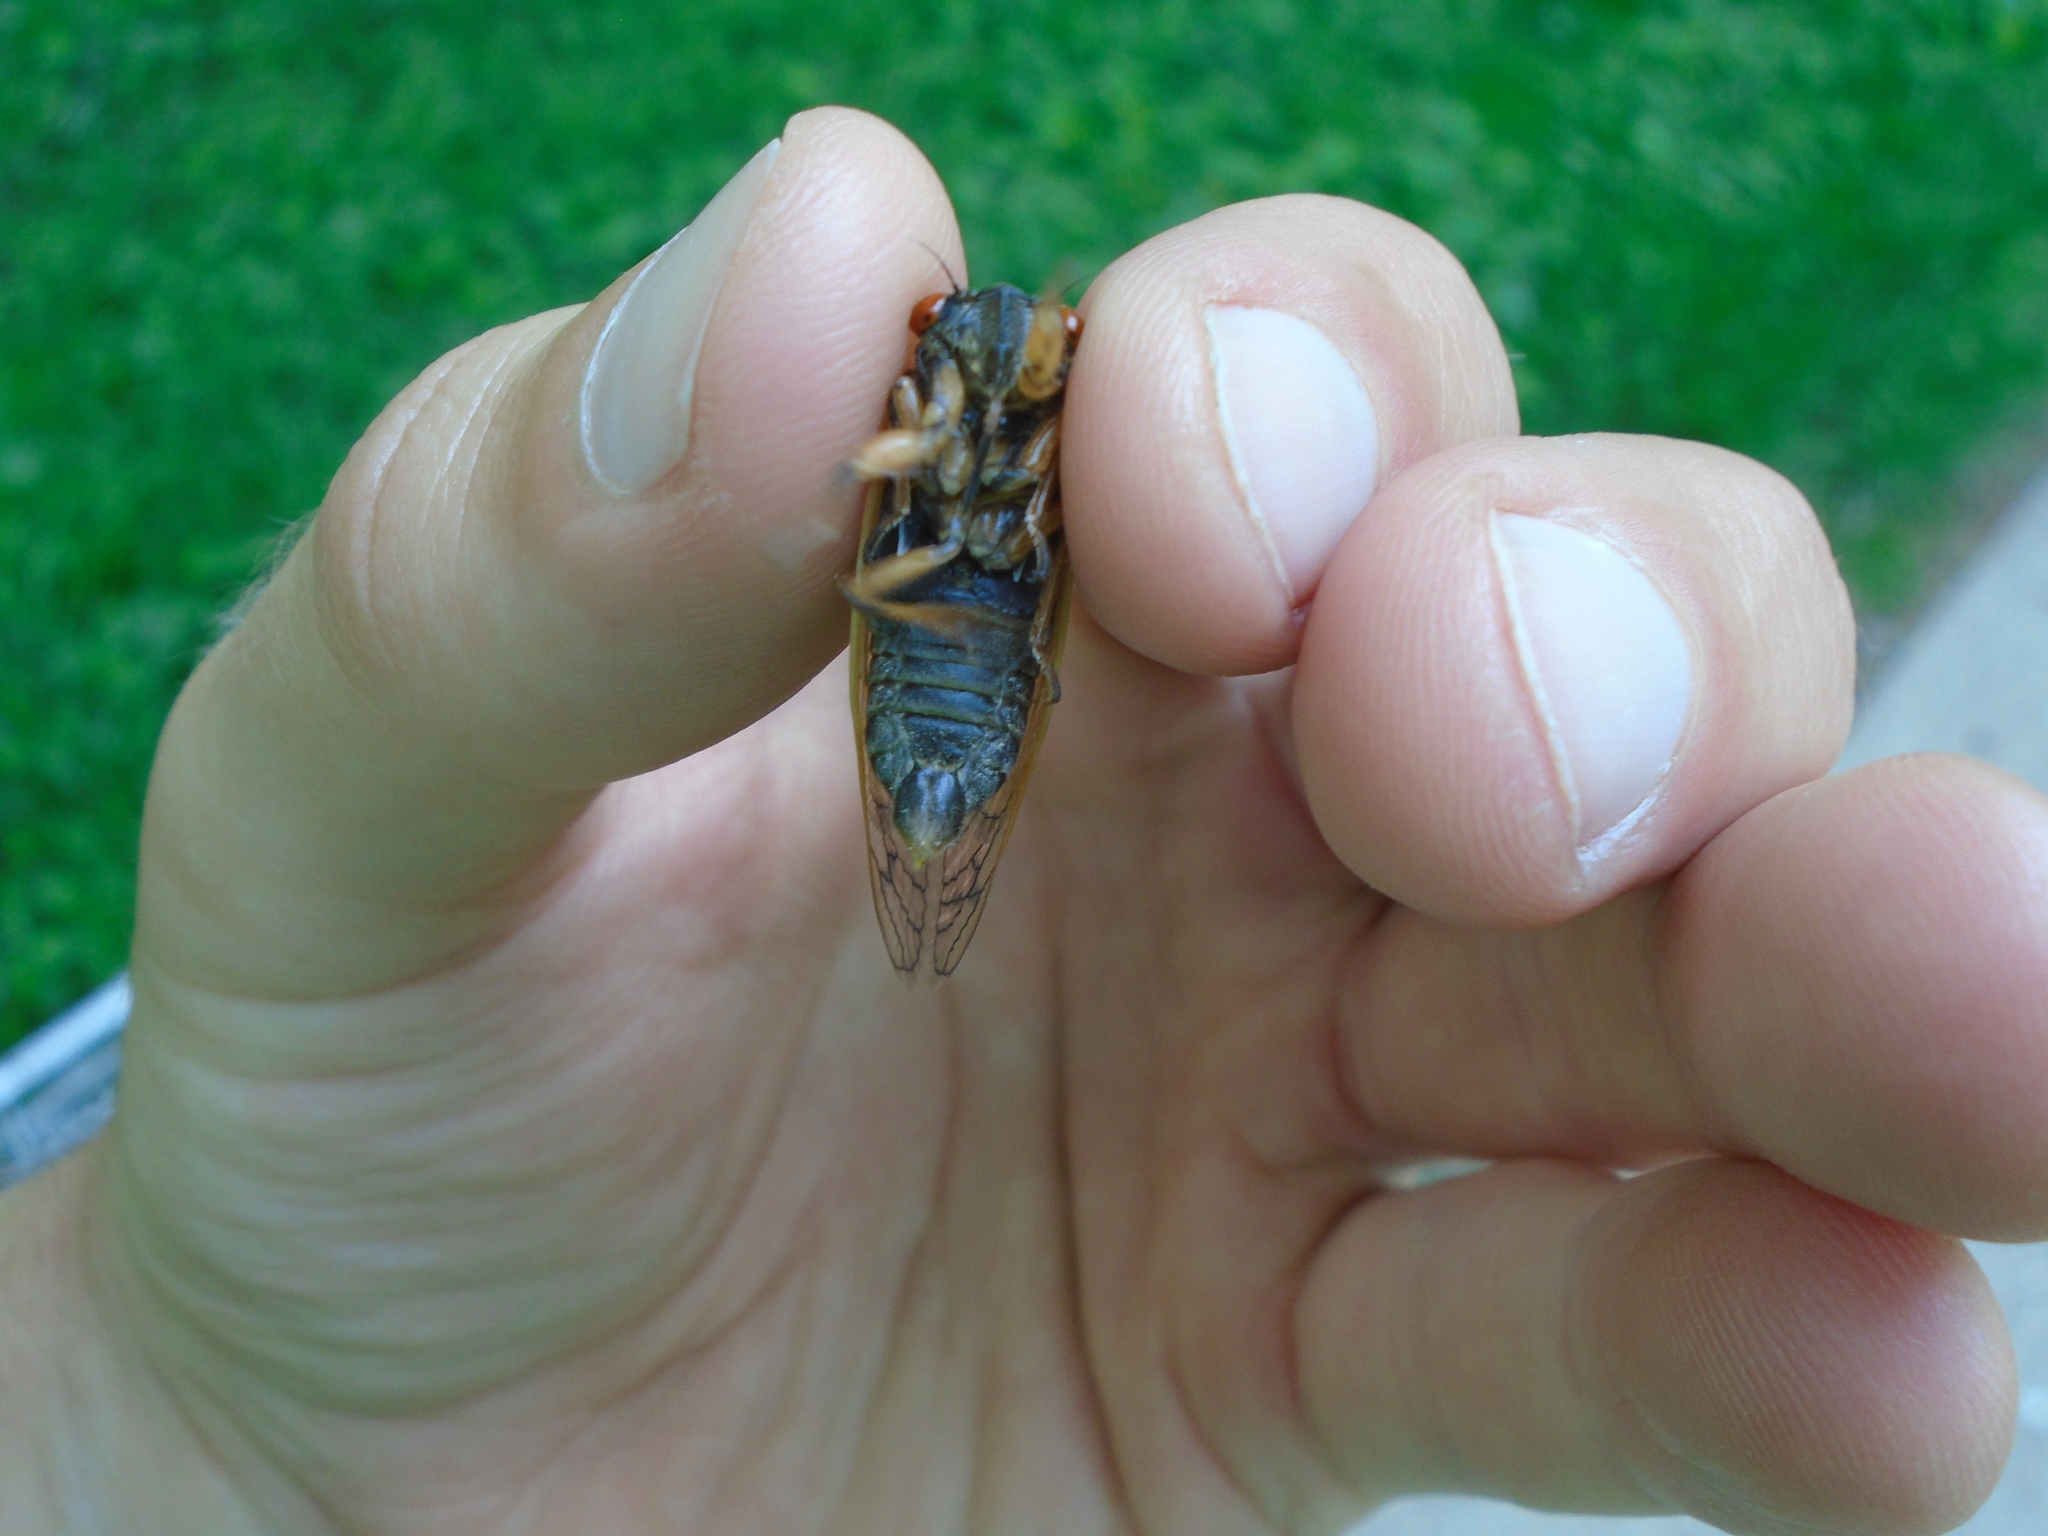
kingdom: Animalia
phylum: Arthropoda
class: Insecta
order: Hemiptera
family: Cicadidae
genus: Magicicada
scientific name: Magicicada cassini
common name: Cassin's 17-year cicada
